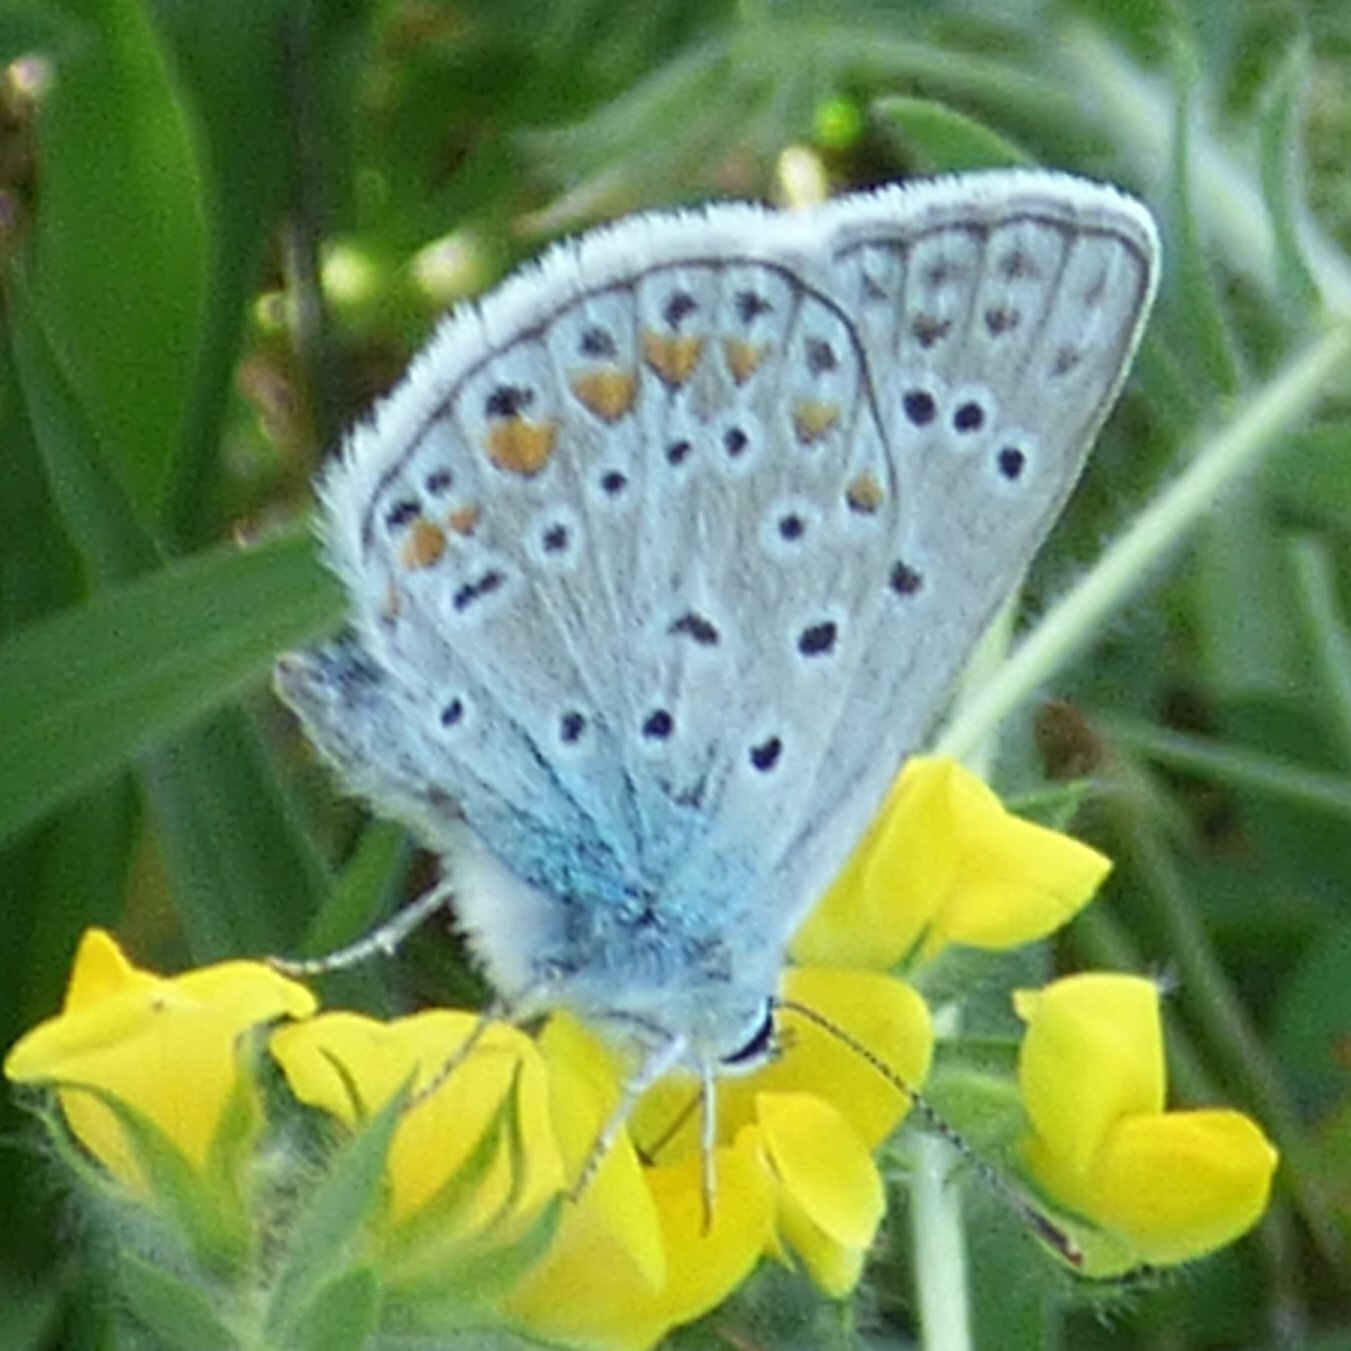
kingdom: Animalia
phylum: Arthropoda
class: Insecta
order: Lepidoptera
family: Lycaenidae
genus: Polyommatus
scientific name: Polyommatus icarus
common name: Common blue
